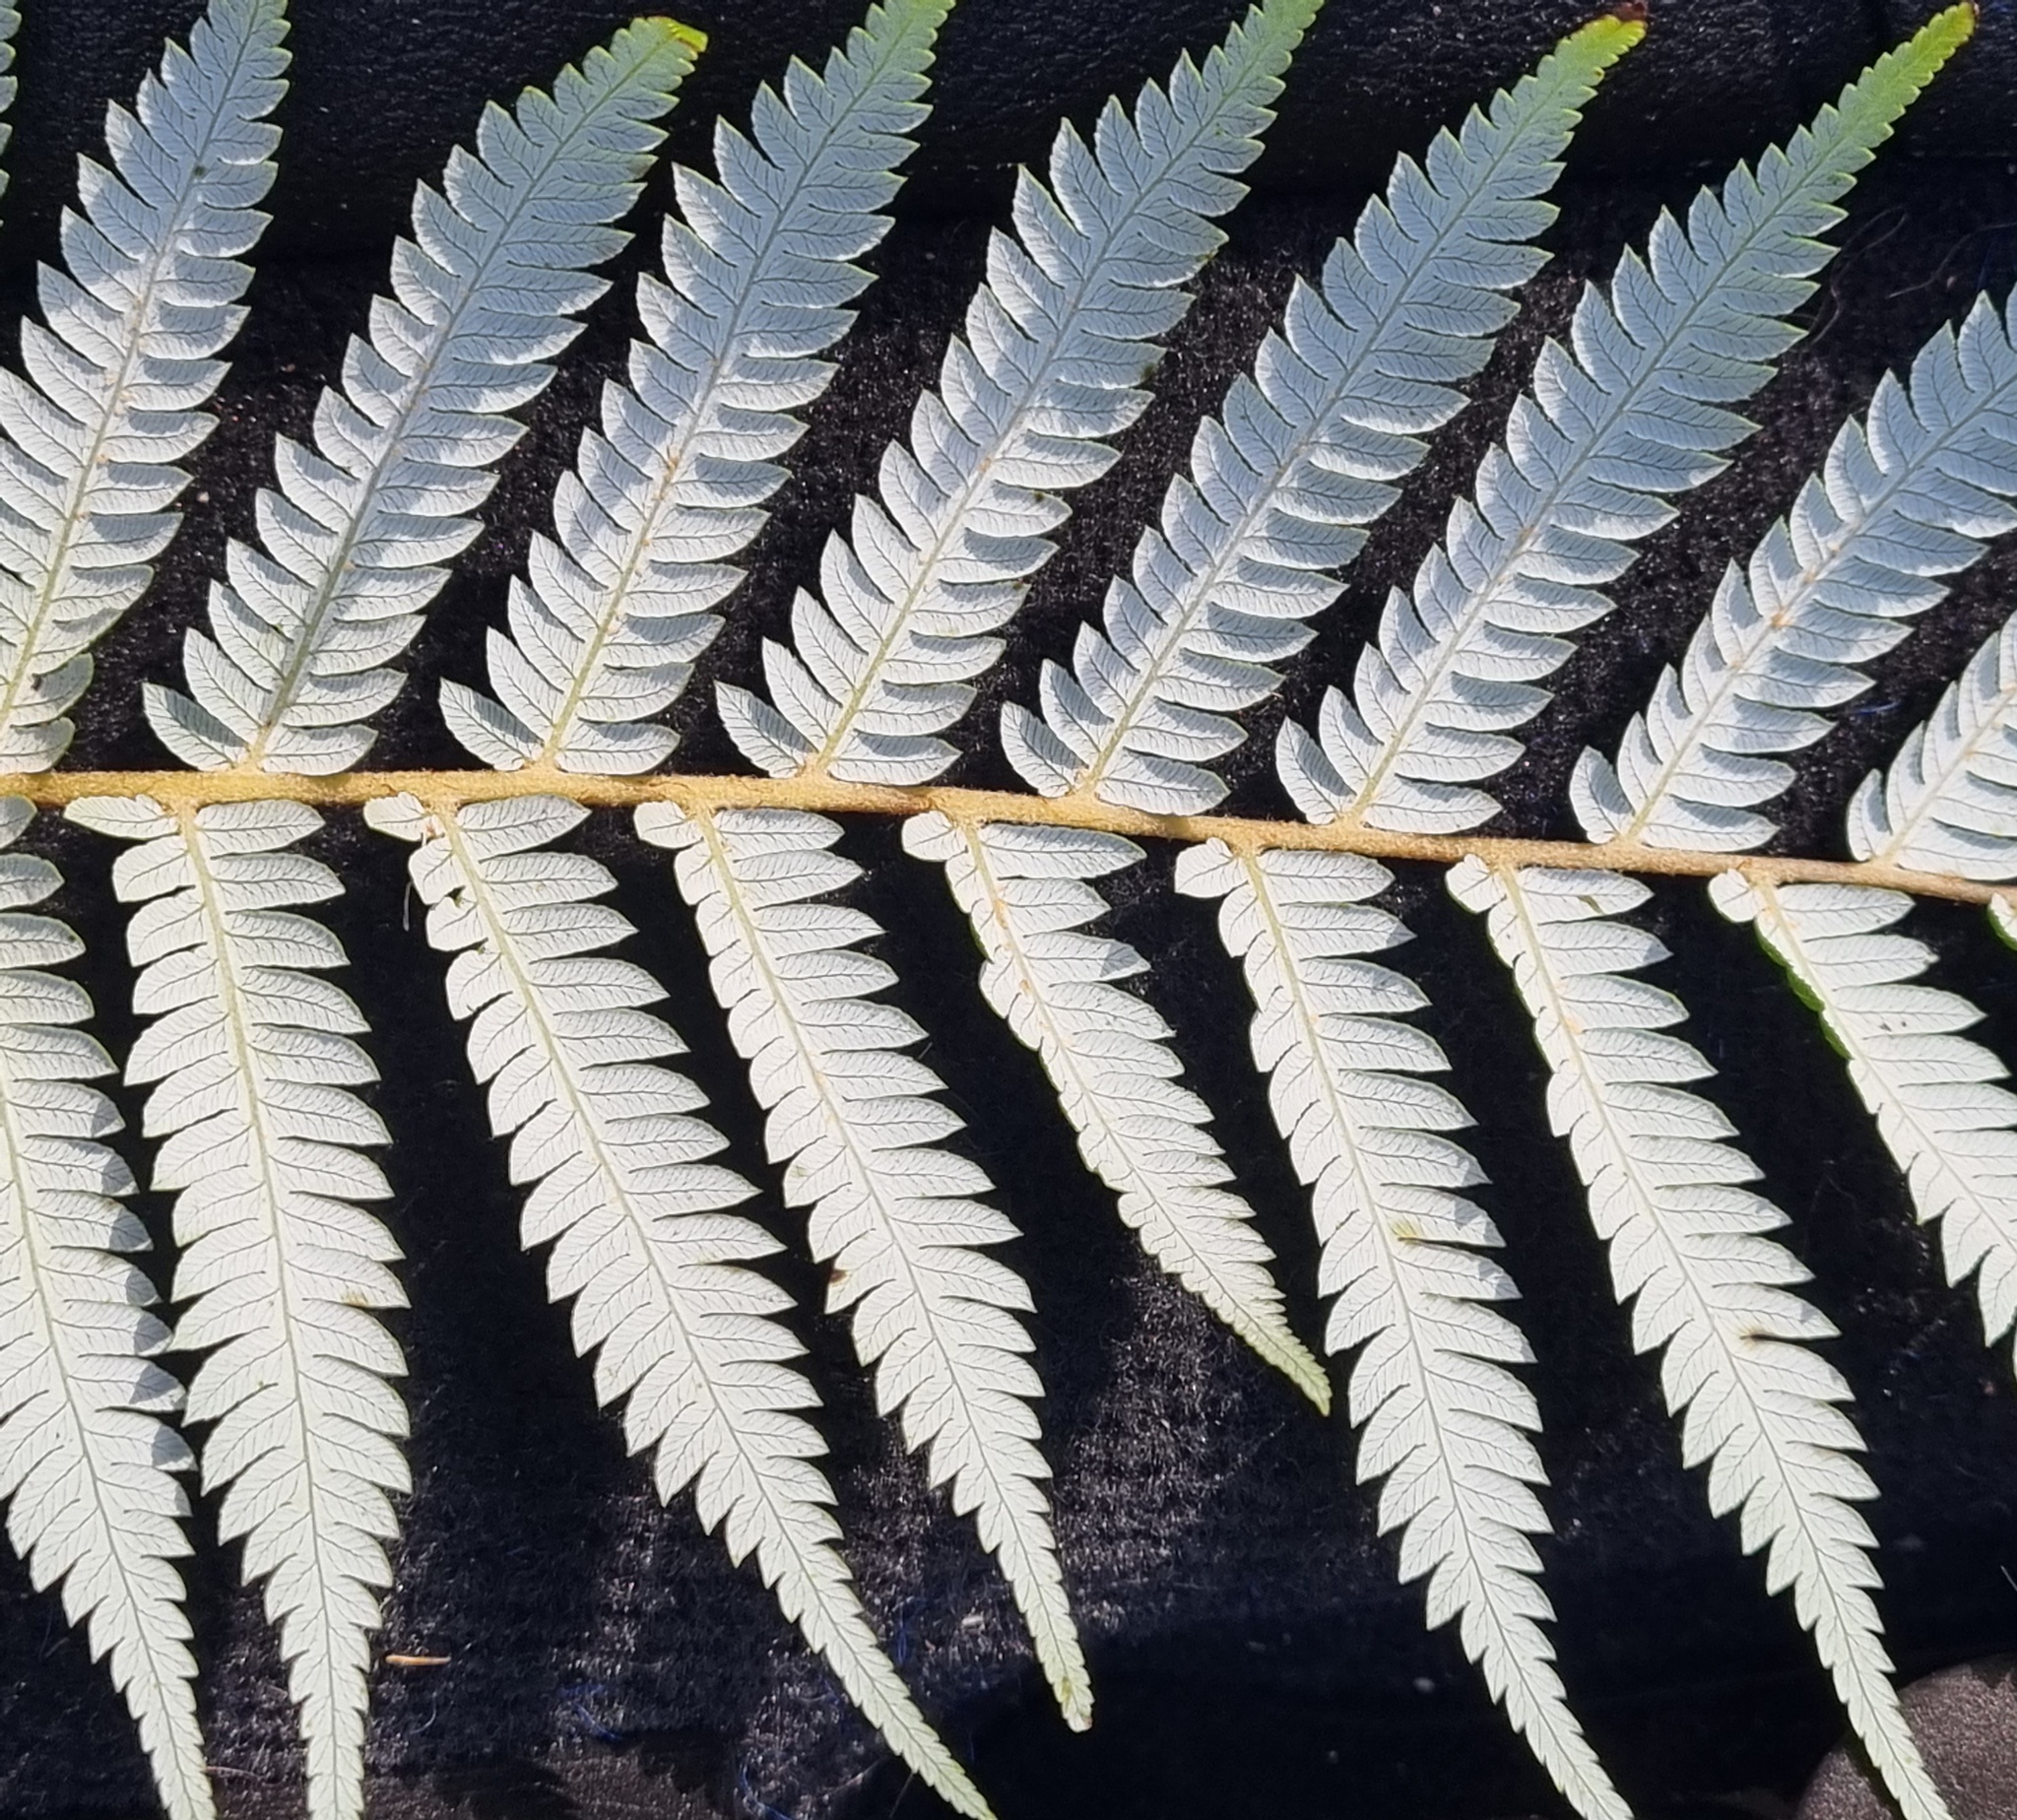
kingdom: Plantae
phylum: Tracheophyta
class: Polypodiopsida
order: Cyatheales
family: Cyatheaceae
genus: Alsophila
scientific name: Alsophila dealbata
